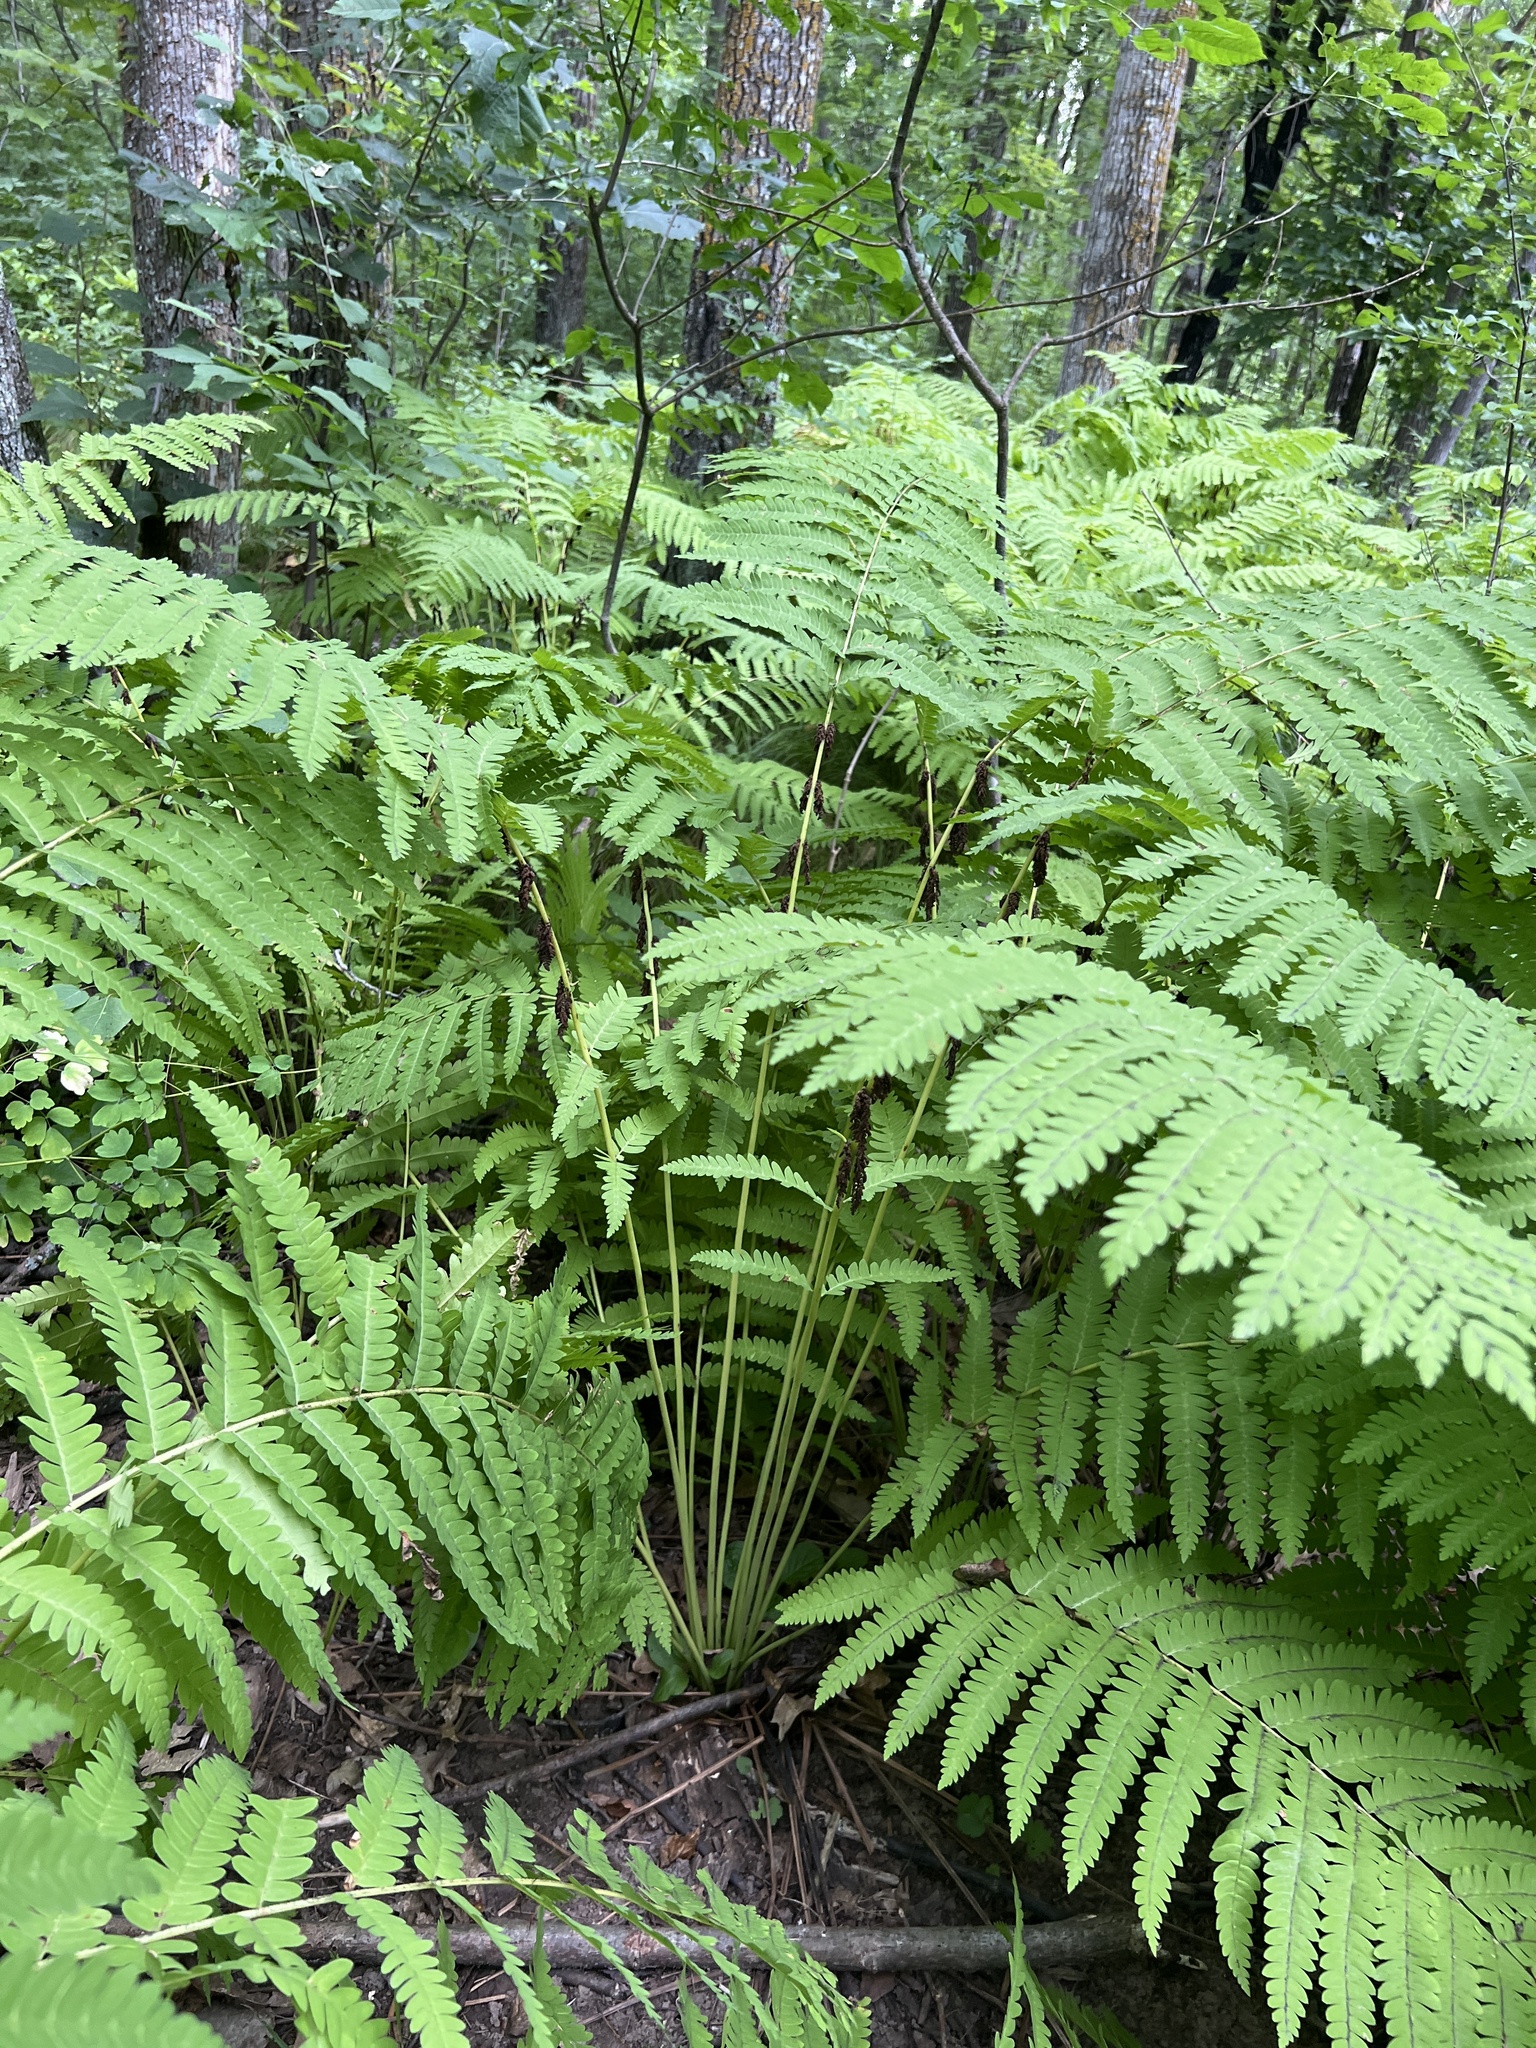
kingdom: Plantae
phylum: Tracheophyta
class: Polypodiopsida
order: Osmundales
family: Osmundaceae
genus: Claytosmunda
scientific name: Claytosmunda claytoniana
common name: Clayton's fern
